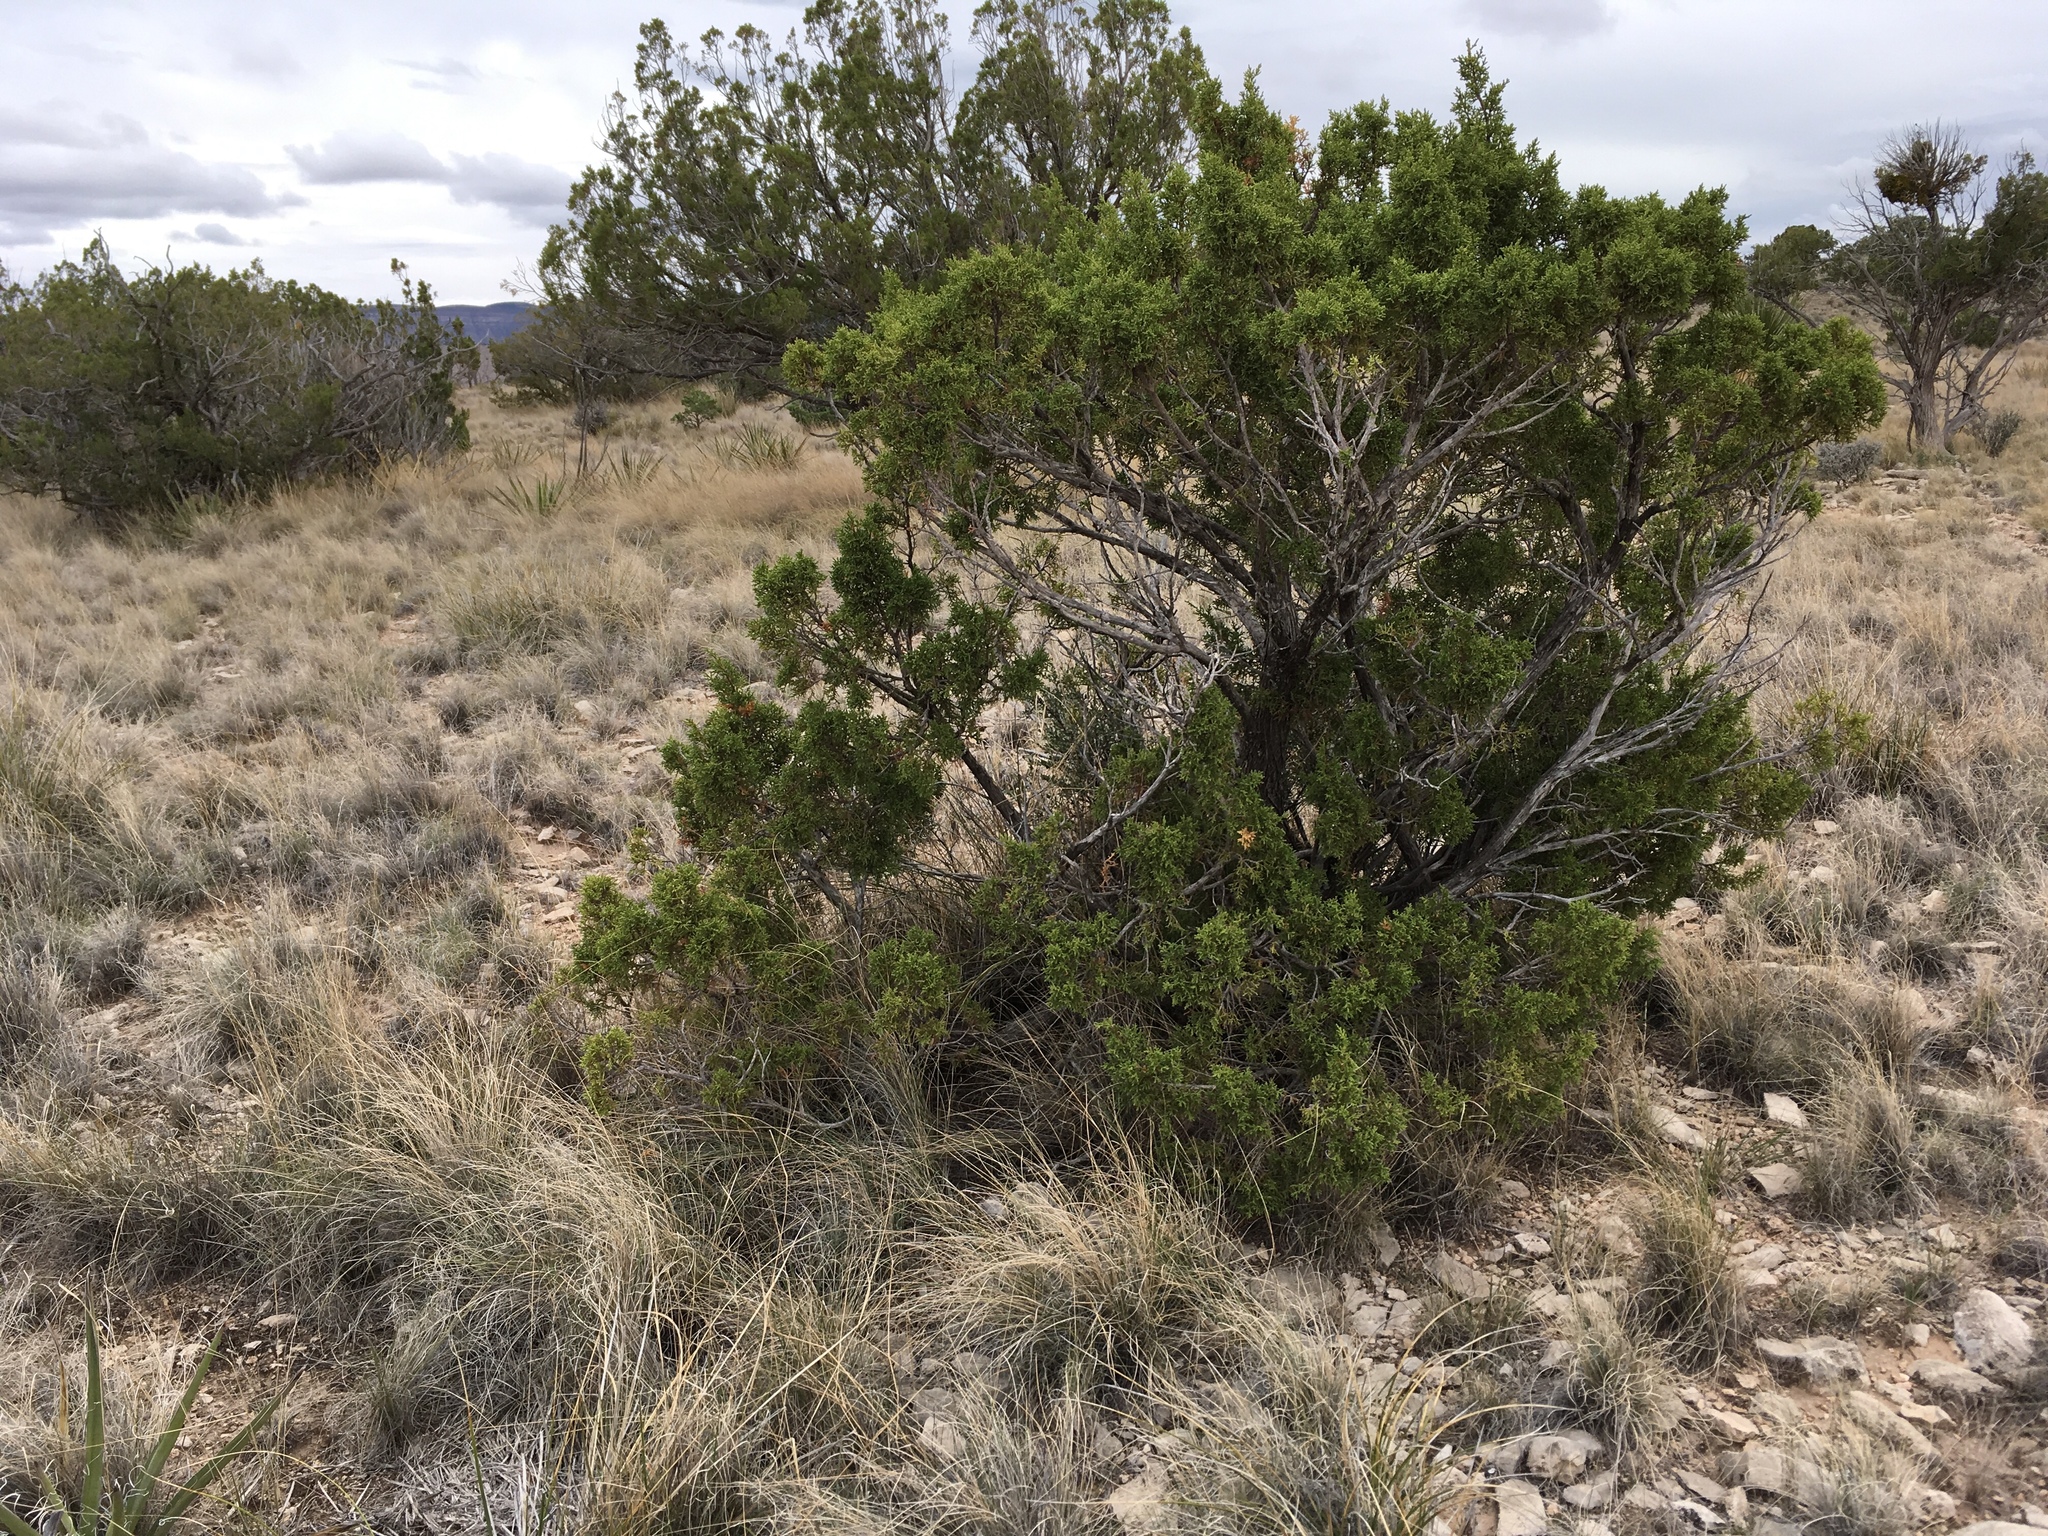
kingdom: Plantae
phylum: Tracheophyta
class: Pinopsida
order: Pinales
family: Cupressaceae
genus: Juniperus
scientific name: Juniperus monosperma
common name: One-seed juniper
